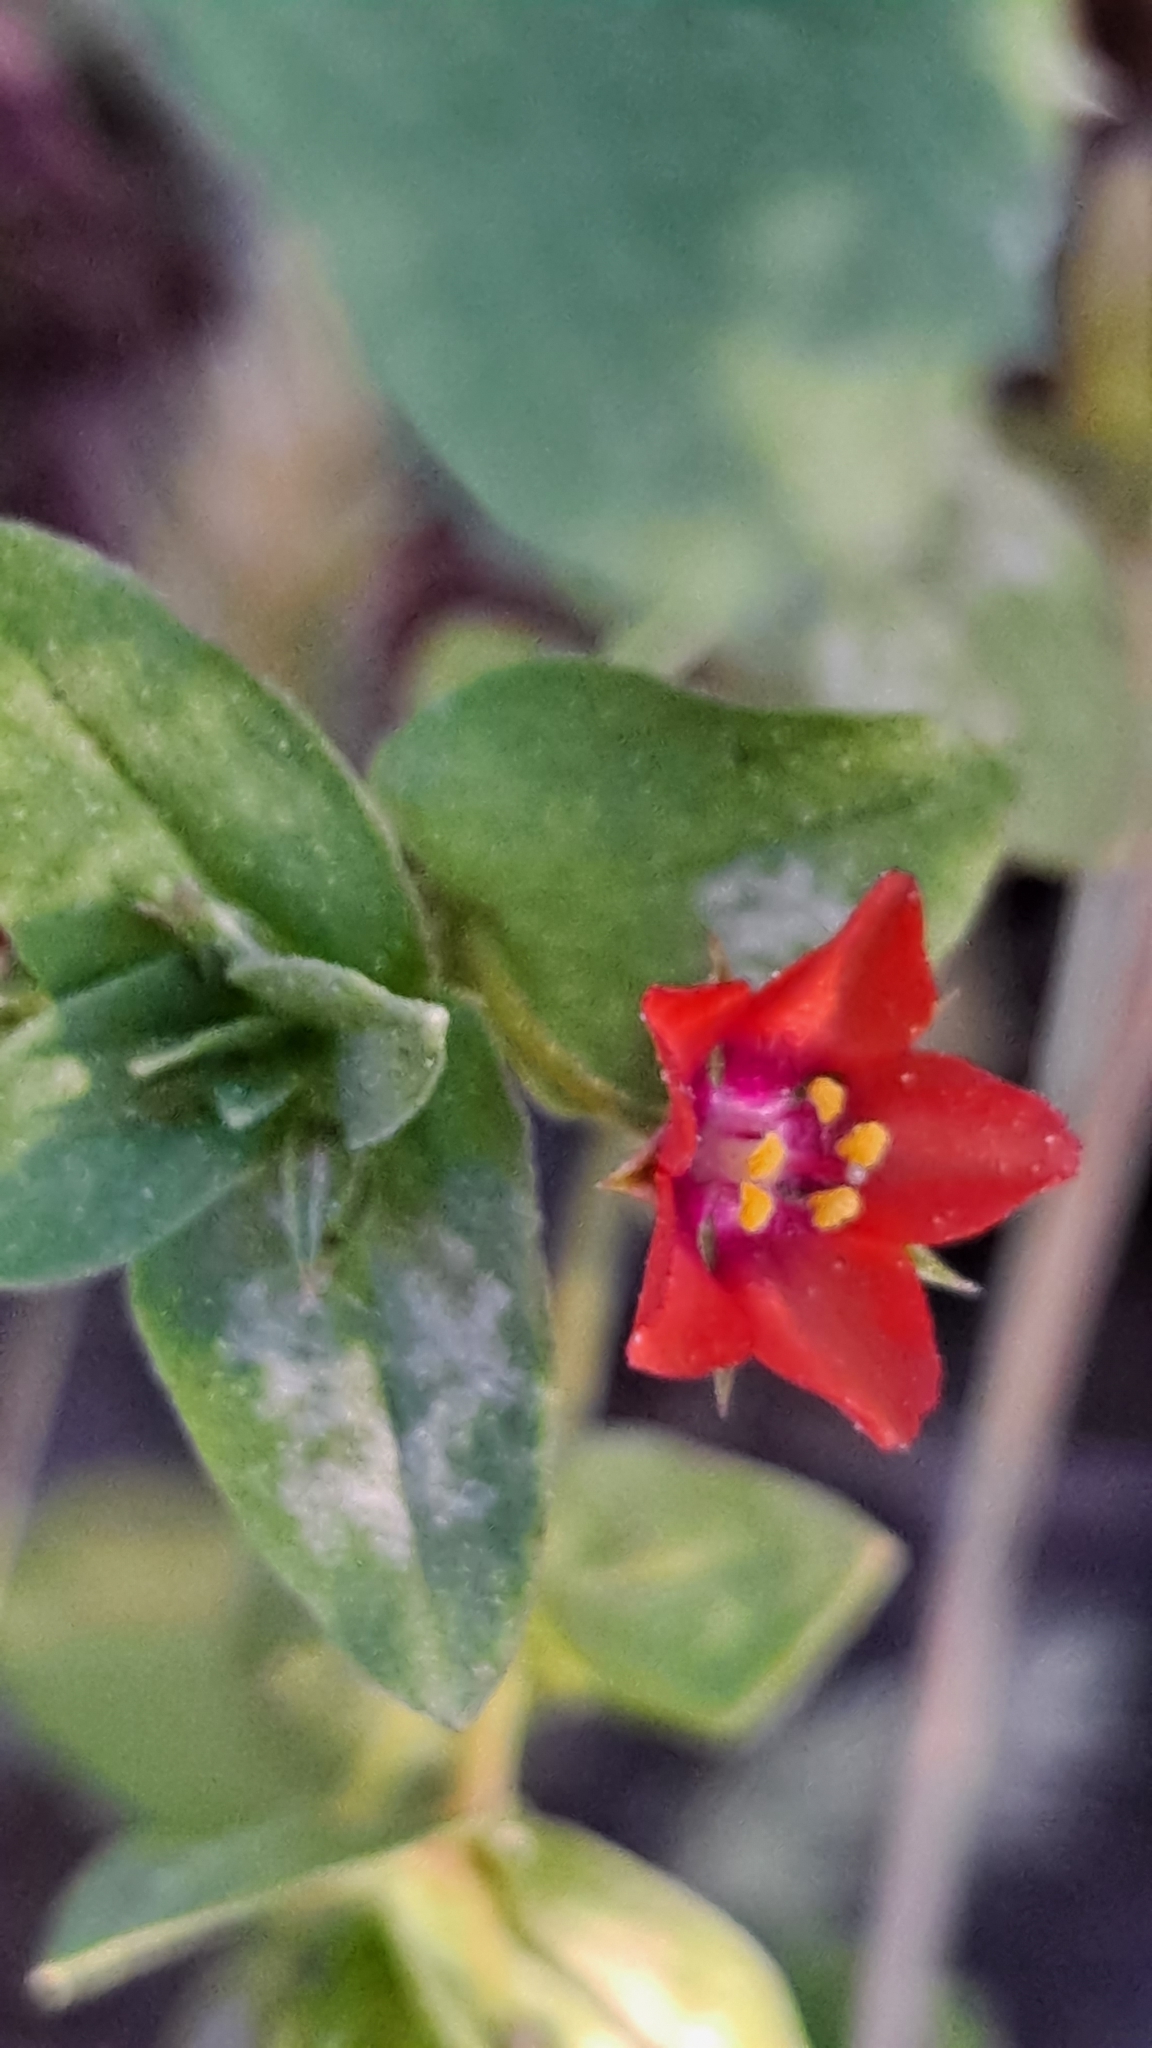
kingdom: Plantae
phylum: Tracheophyta
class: Magnoliopsida
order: Ericales
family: Primulaceae
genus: Lysimachia
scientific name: Lysimachia arvensis
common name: Scarlet pimpernel
